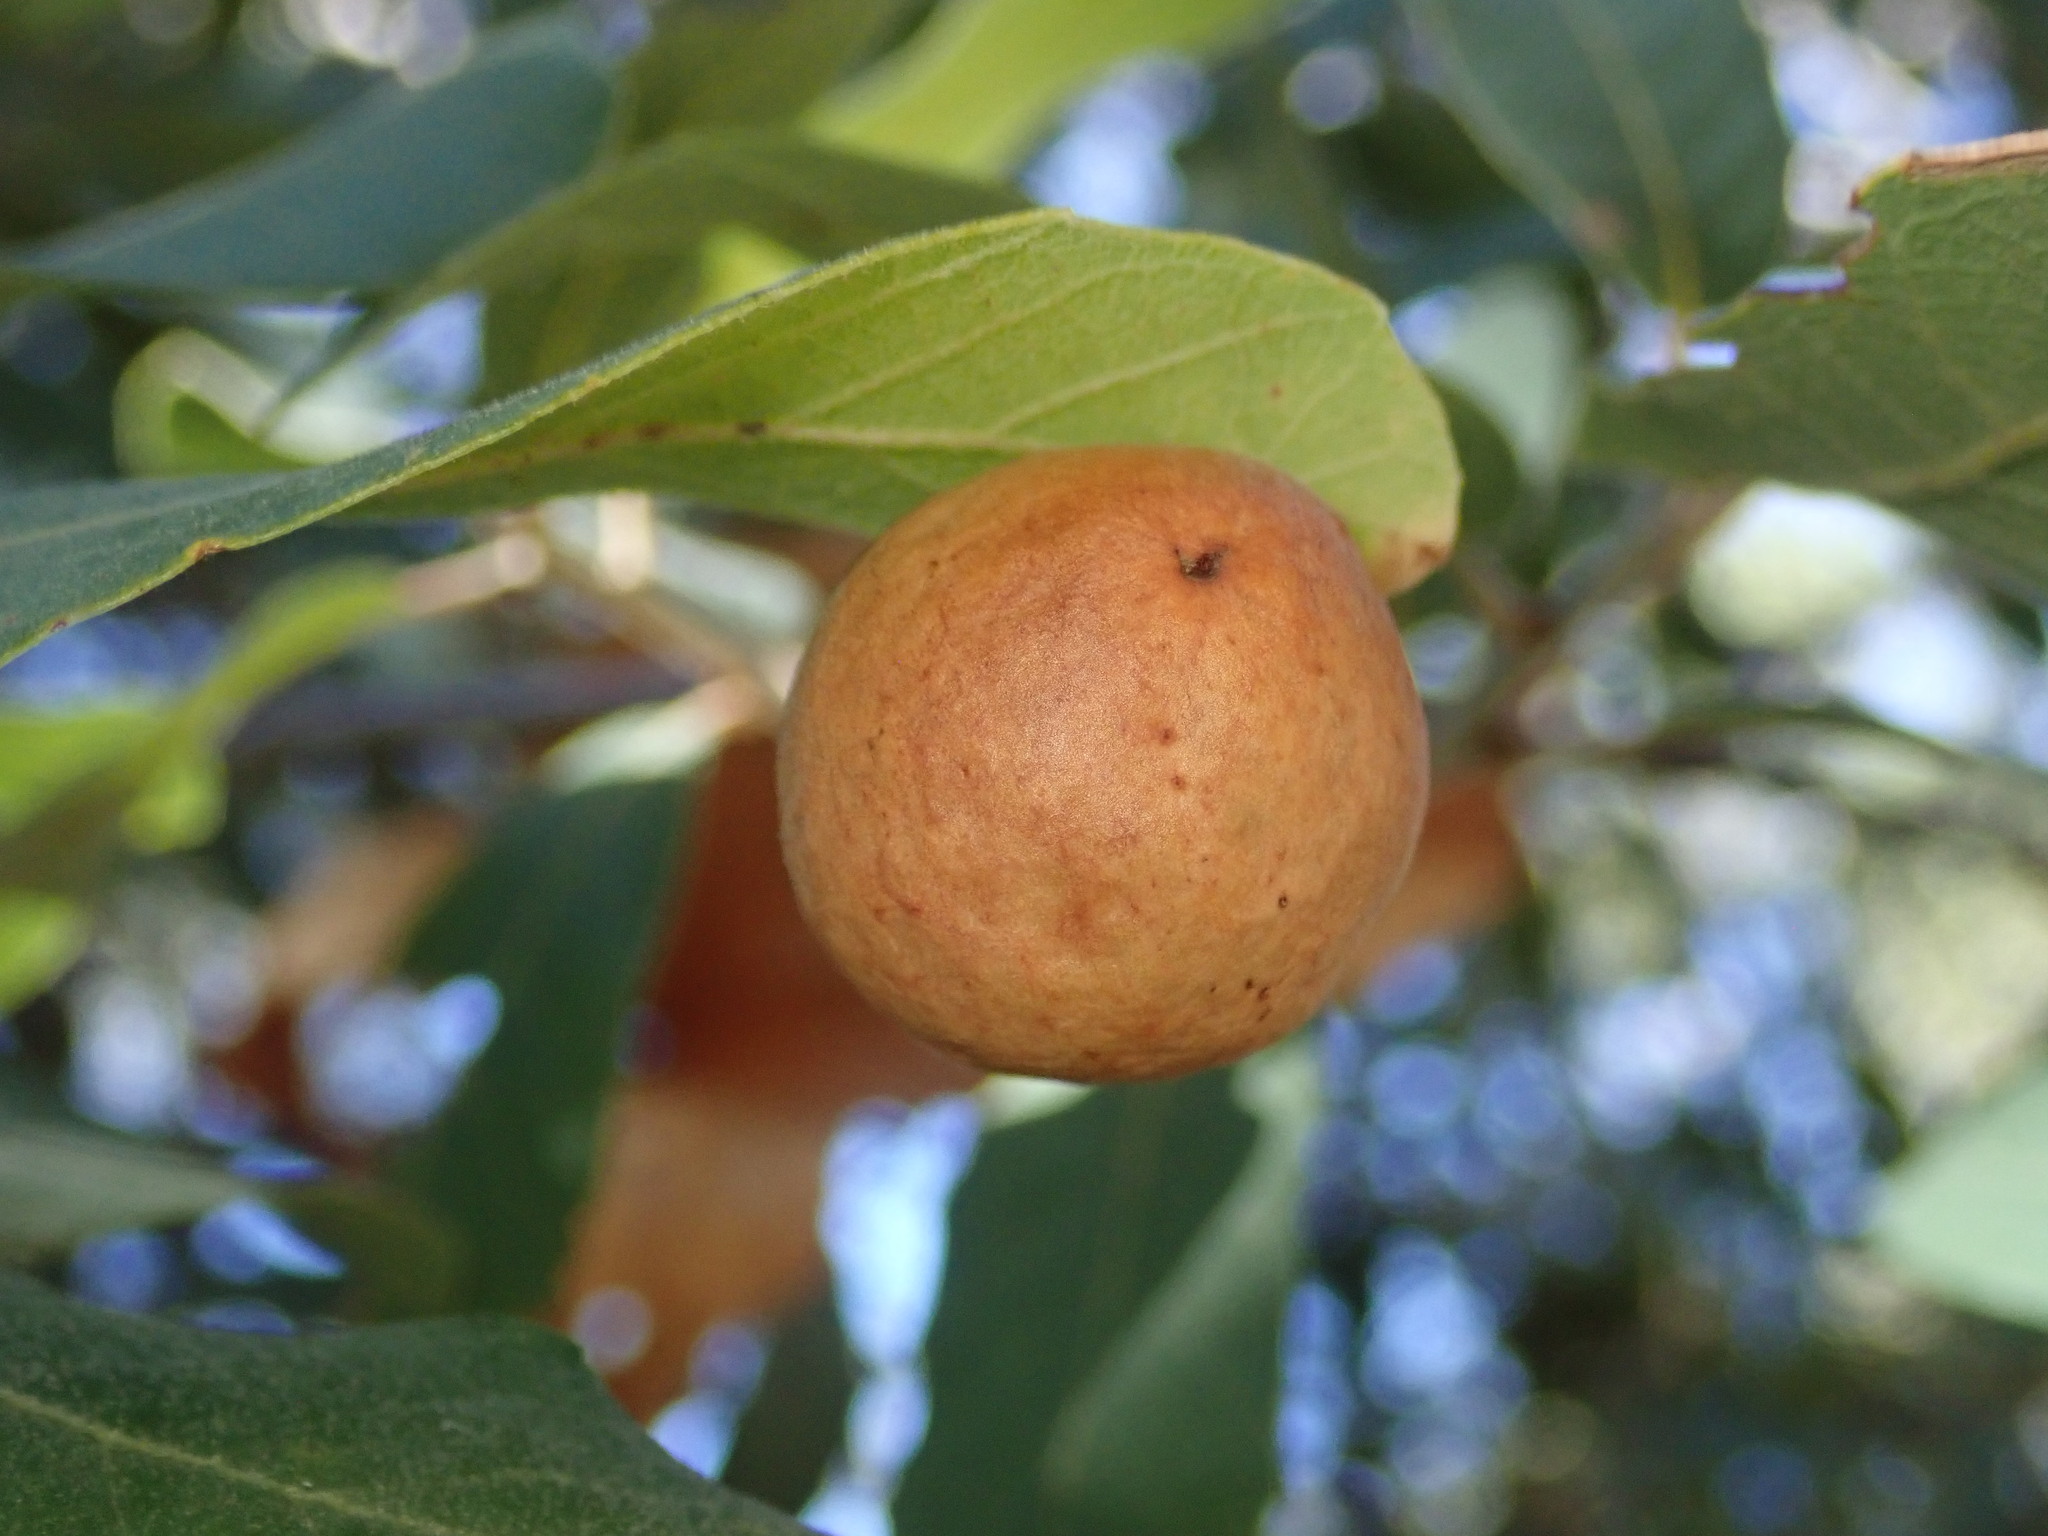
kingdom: Animalia
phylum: Arthropoda
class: Insecta
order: Hymenoptera
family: Cynipidae
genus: Atrusca
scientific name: Atrusca
